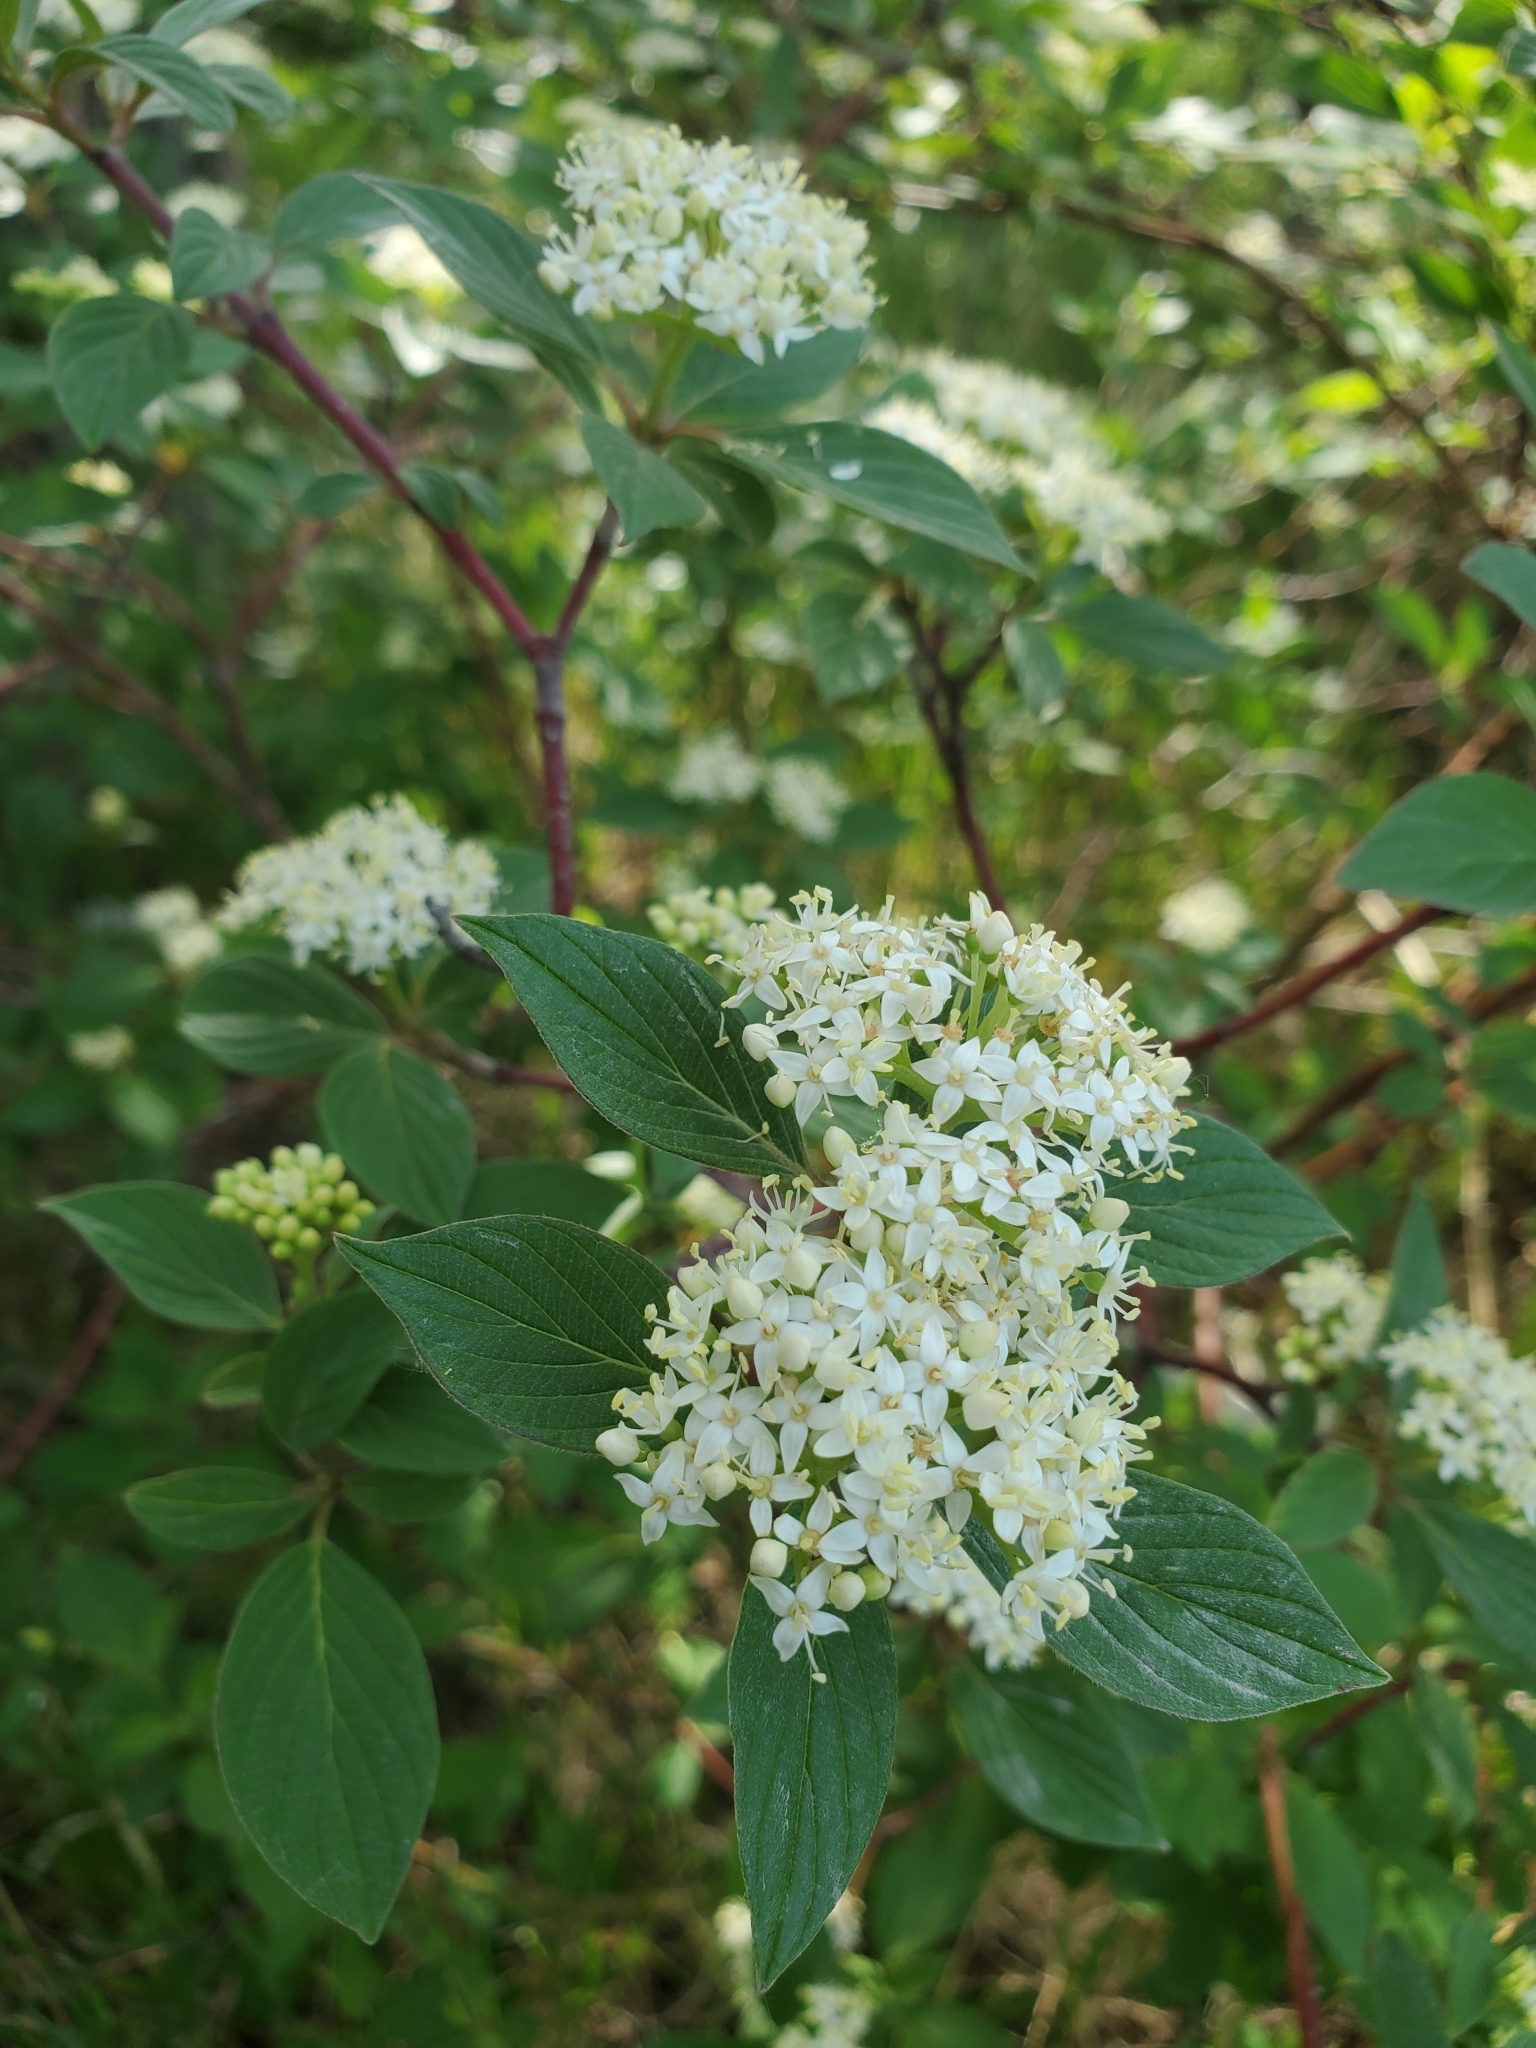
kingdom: Plantae
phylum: Tracheophyta
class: Magnoliopsida
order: Cornales
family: Cornaceae
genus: Cornus
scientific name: Cornus sericea
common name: Red-osier dogwood
